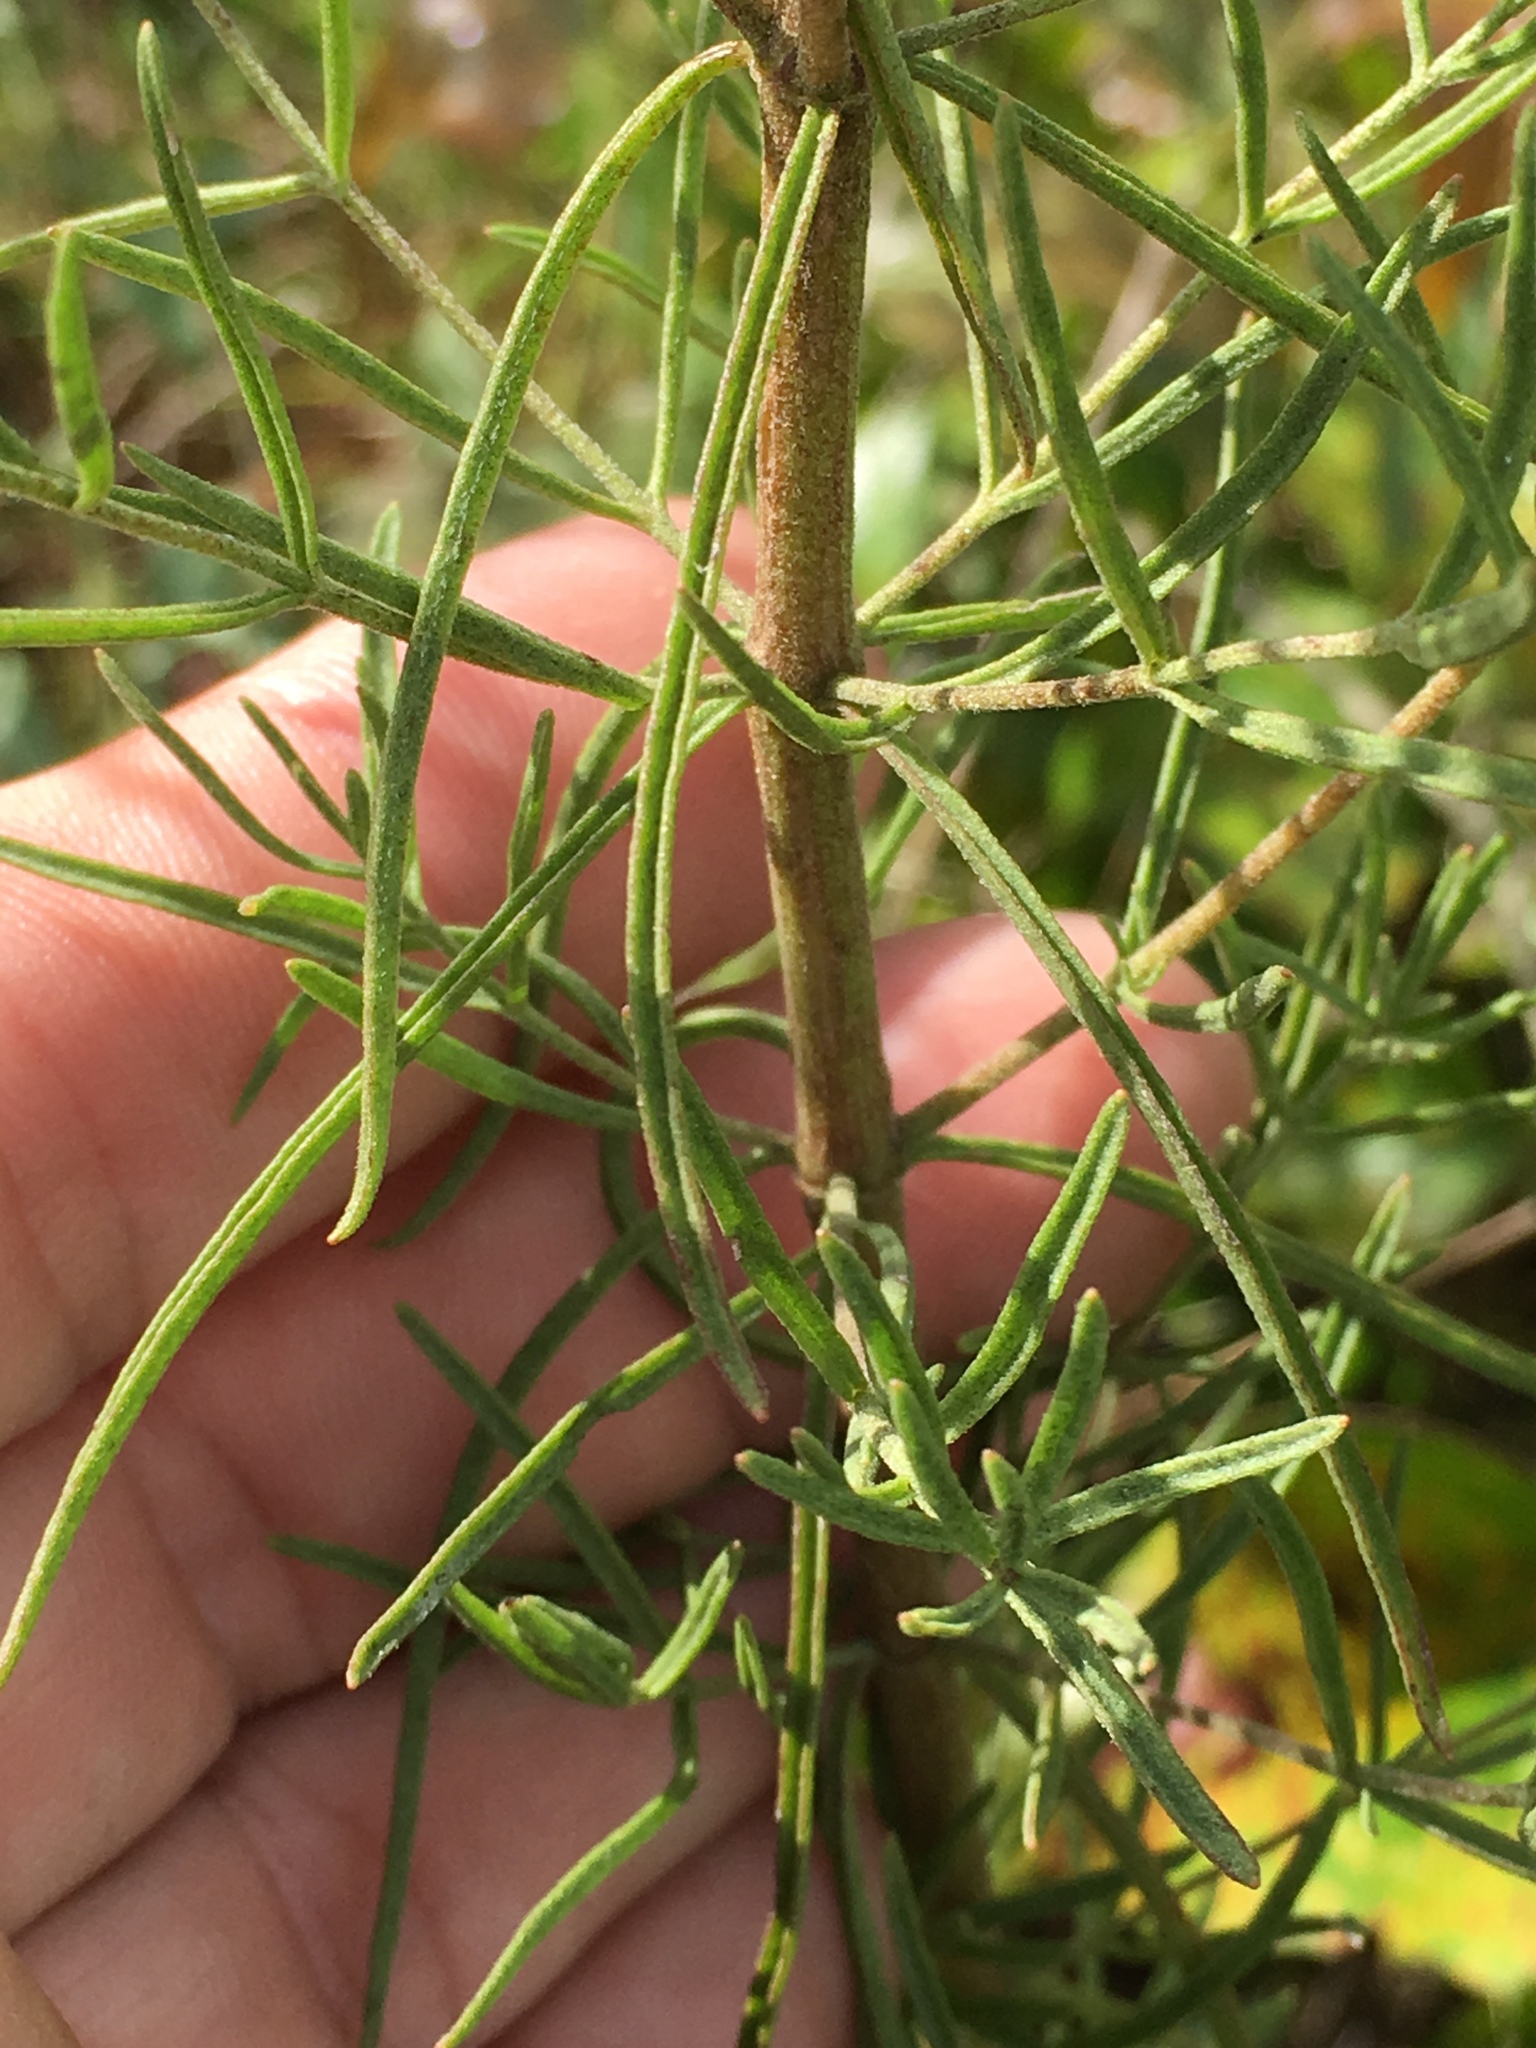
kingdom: Plantae
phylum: Tracheophyta
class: Magnoliopsida
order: Asterales
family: Asteraceae
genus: Eupatorium
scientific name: Eupatorium hyssopifolium
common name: Hyssop-leaf thoroughwort
